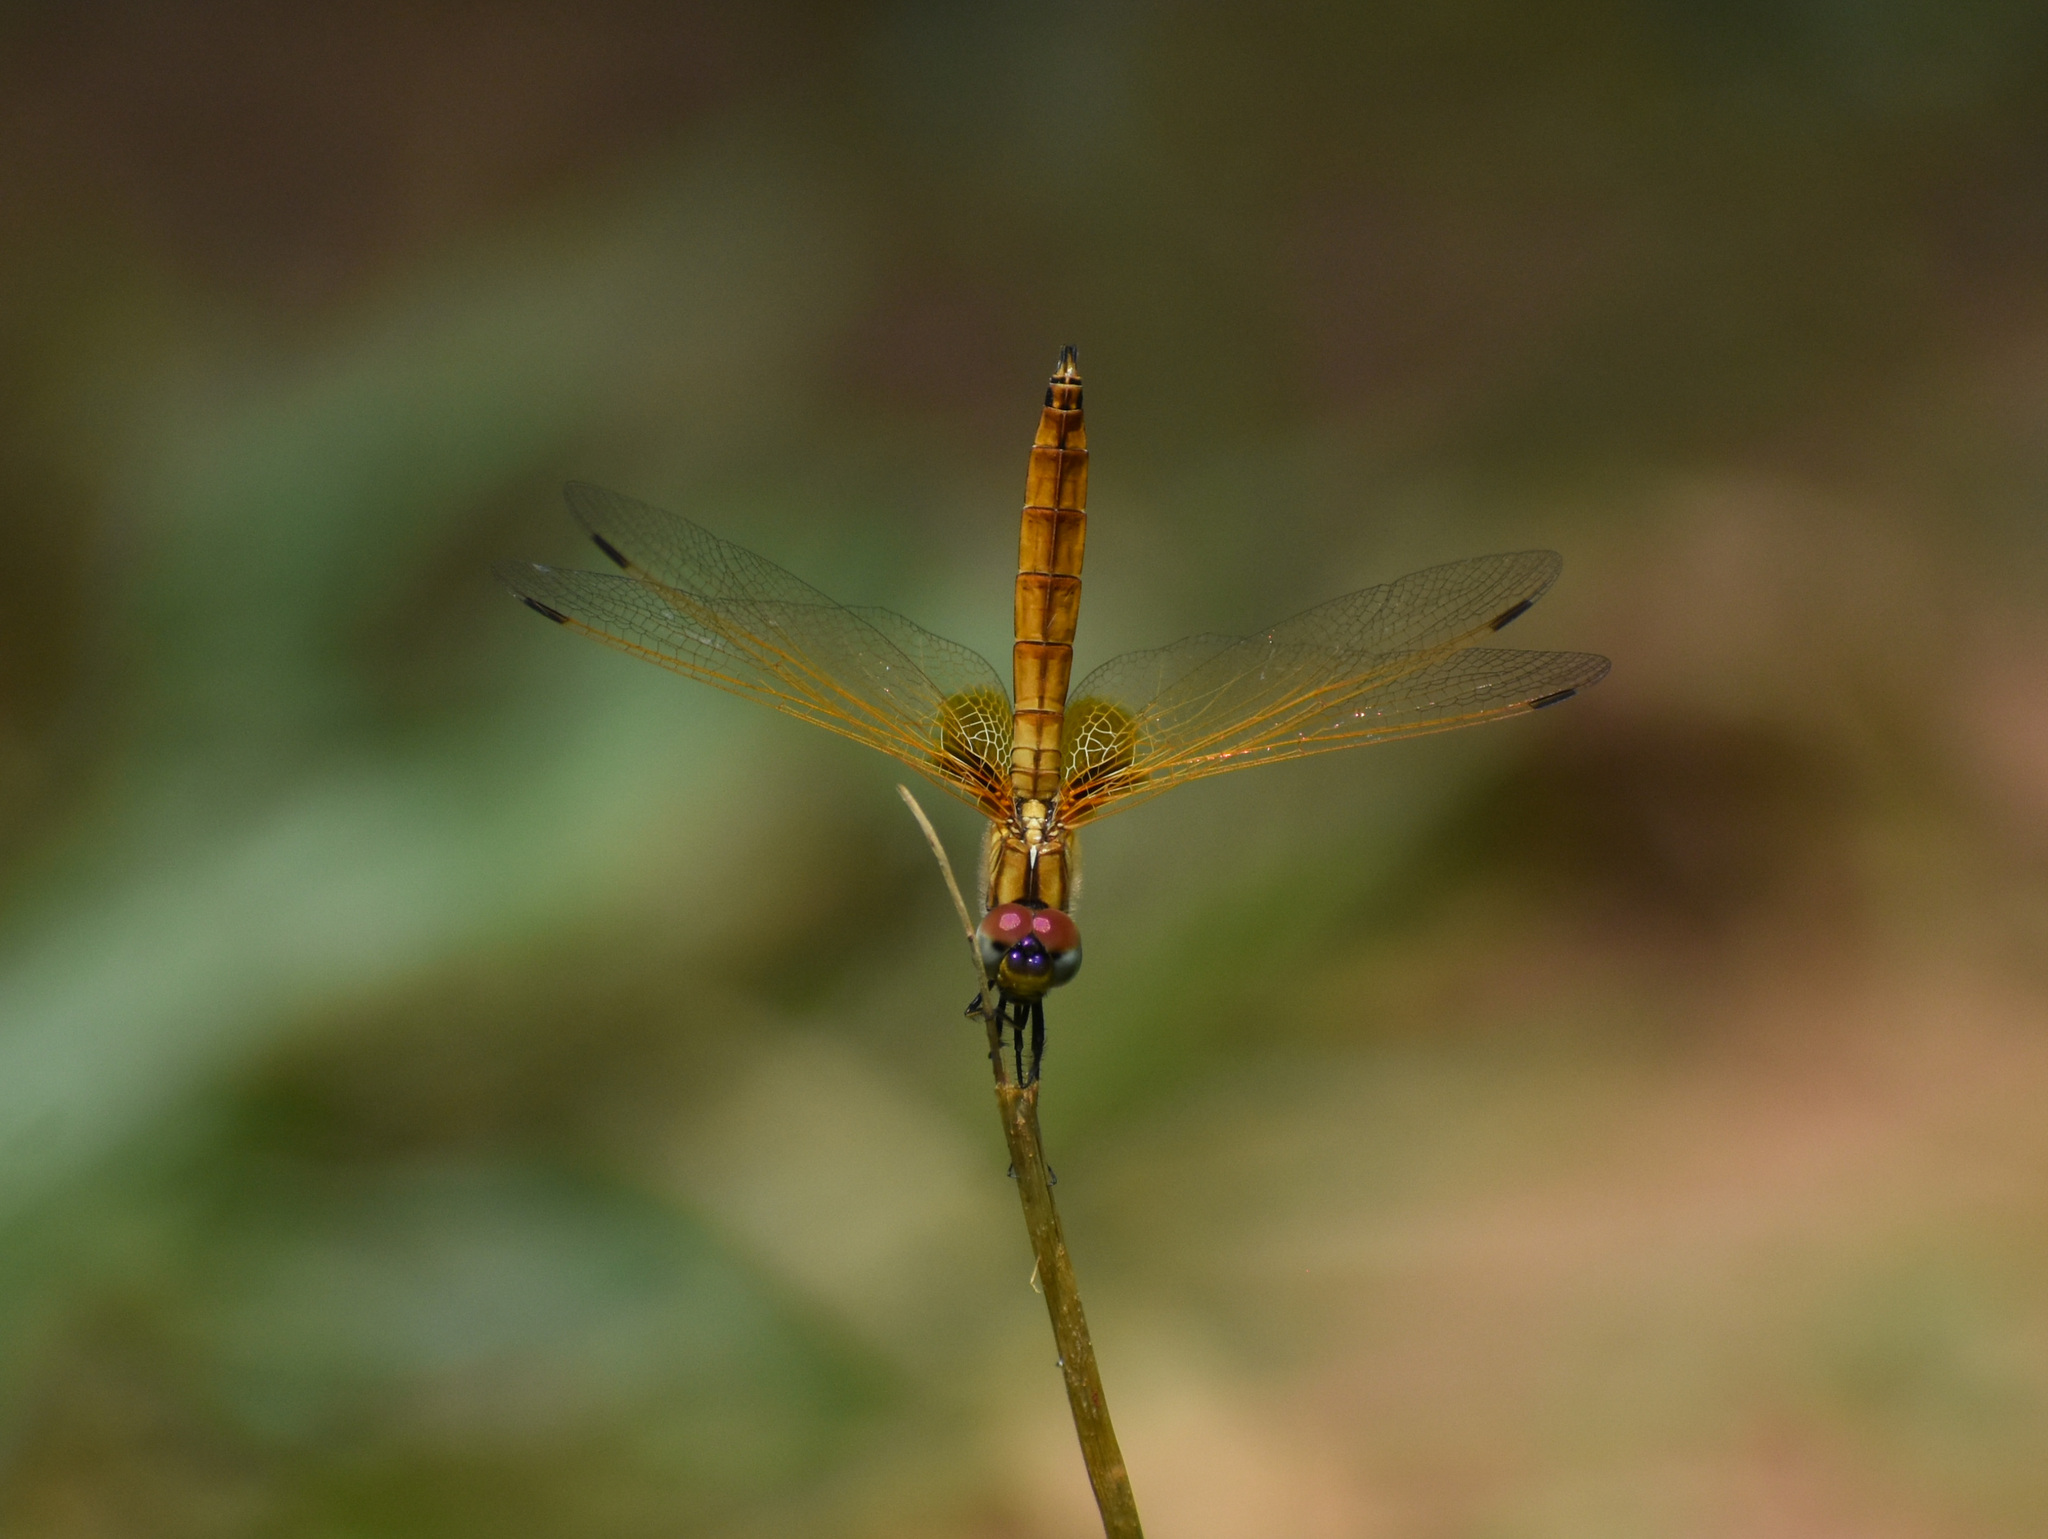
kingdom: Animalia
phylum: Arthropoda
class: Insecta
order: Odonata
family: Libellulidae
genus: Trithemis
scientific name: Trithemis aurora
